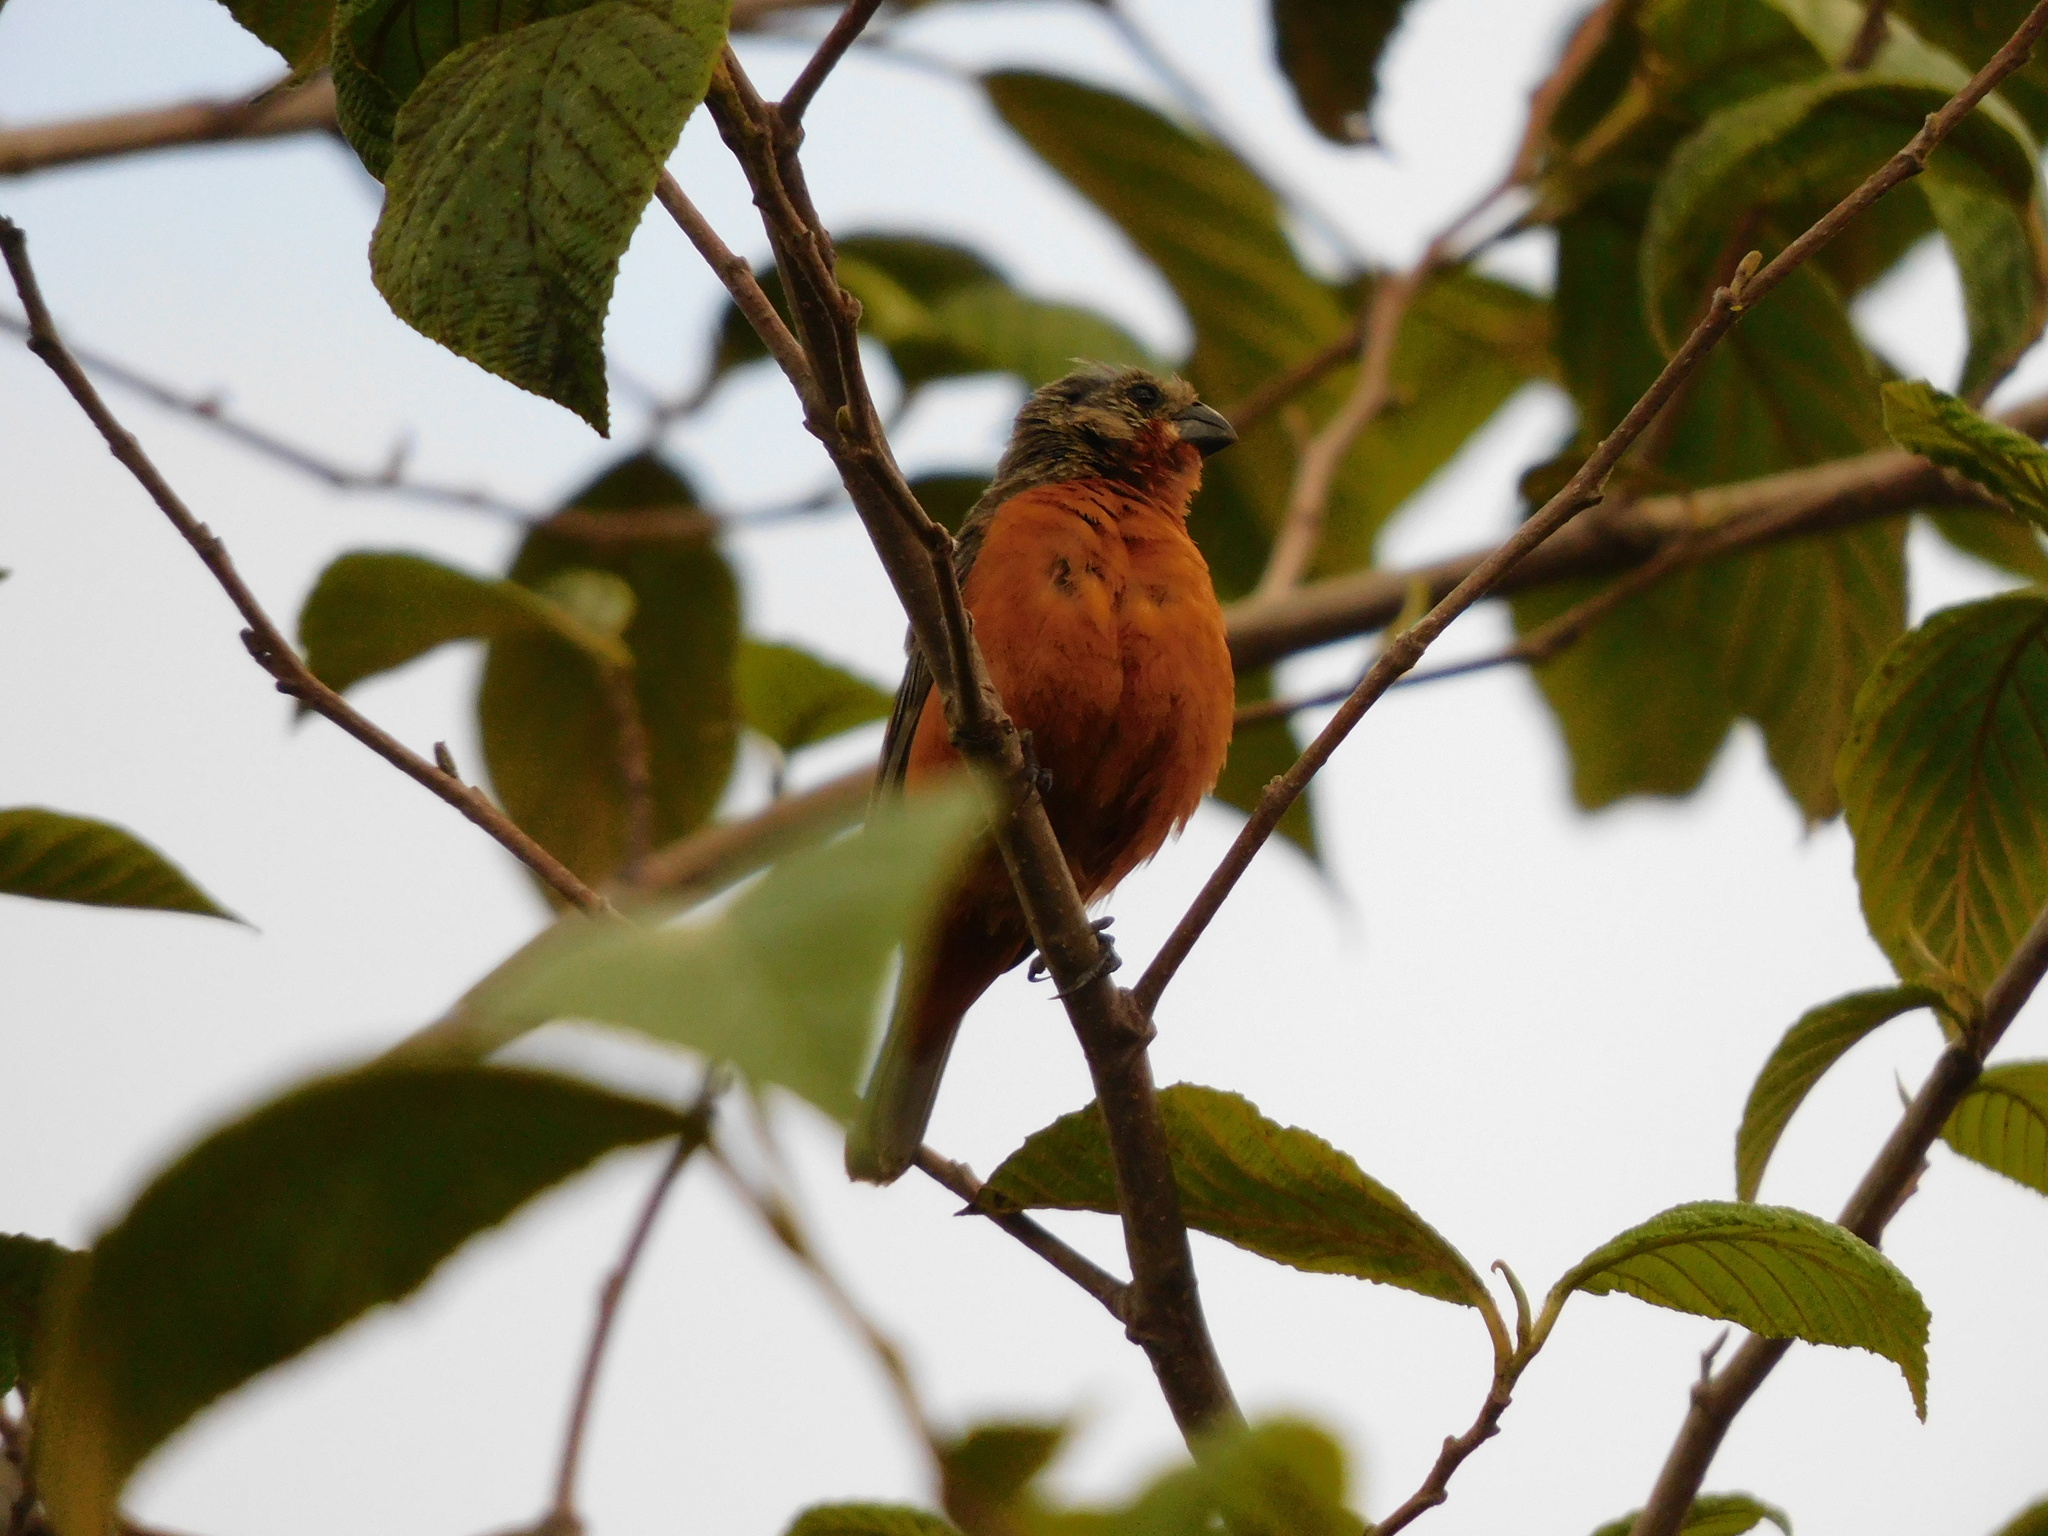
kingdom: Animalia
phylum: Chordata
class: Aves
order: Passeriformes
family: Thraupidae
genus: Sporophila
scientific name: Sporophila minuta
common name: Ruddy-breasted seedeater
